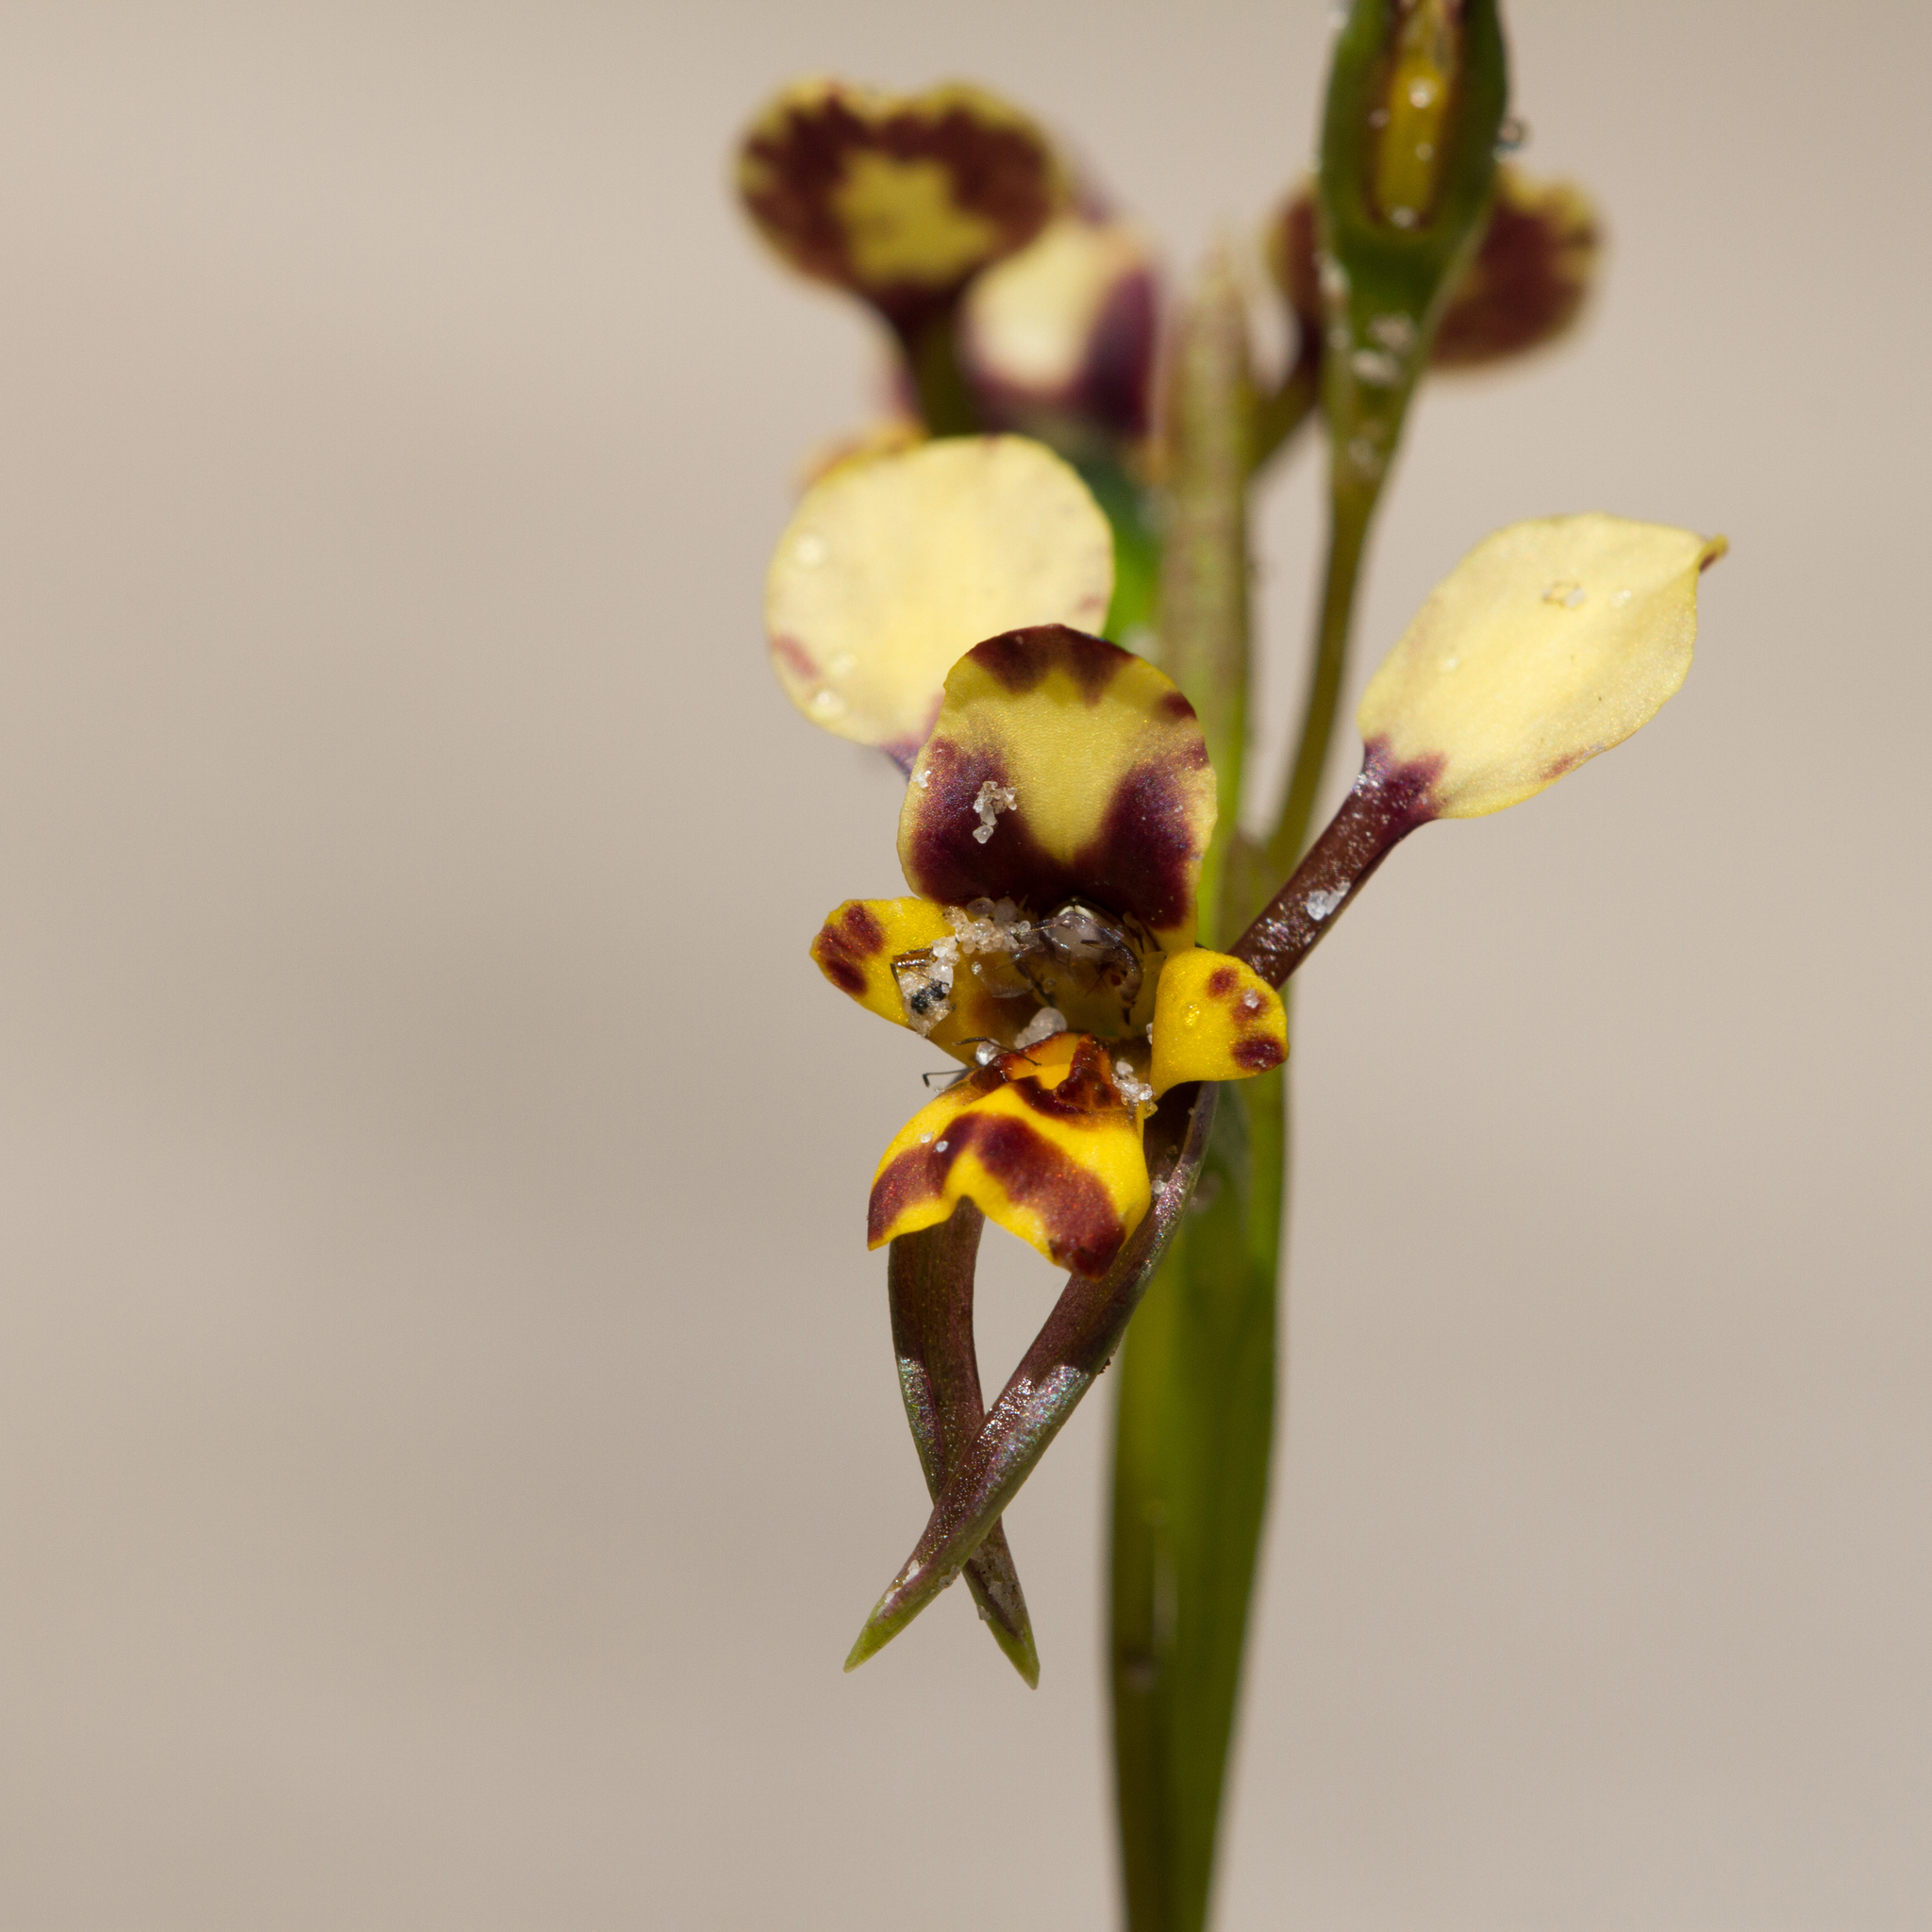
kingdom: Plantae
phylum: Tracheophyta
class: Liliopsida
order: Asparagales
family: Orchidaceae
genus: Diuris
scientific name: Diuris calcicola
